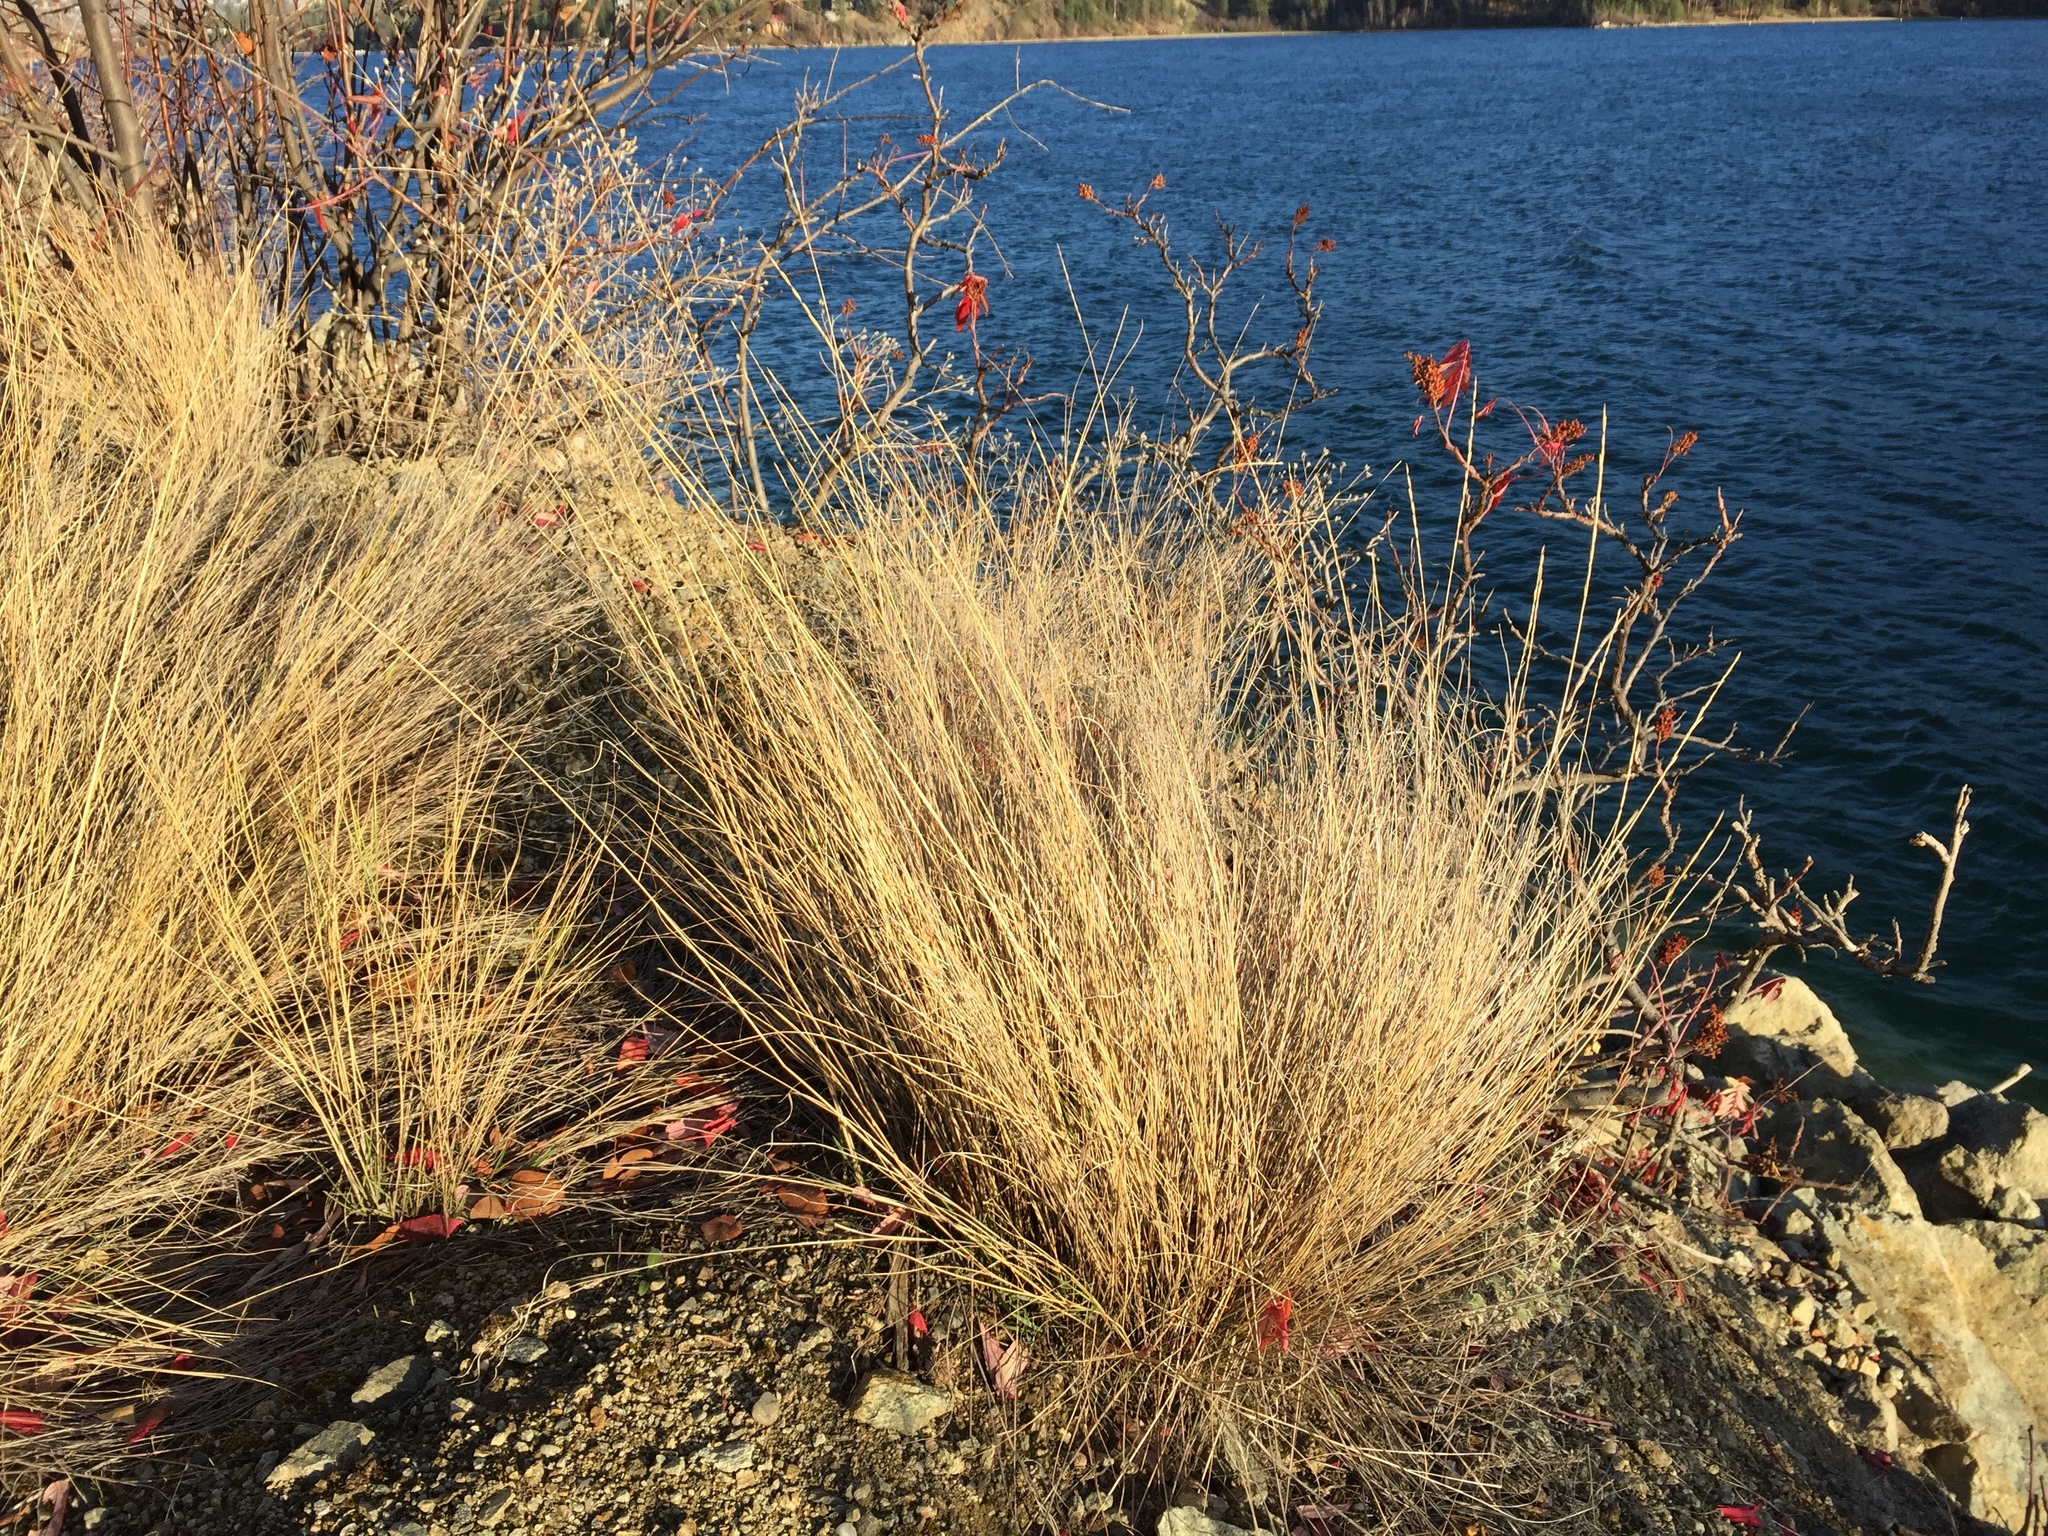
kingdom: Plantae
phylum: Tracheophyta
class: Liliopsida
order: Poales
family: Poaceae
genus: Pseudoroegneria
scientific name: Pseudoroegneria spicata
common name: Bluebunch wheatgrass
